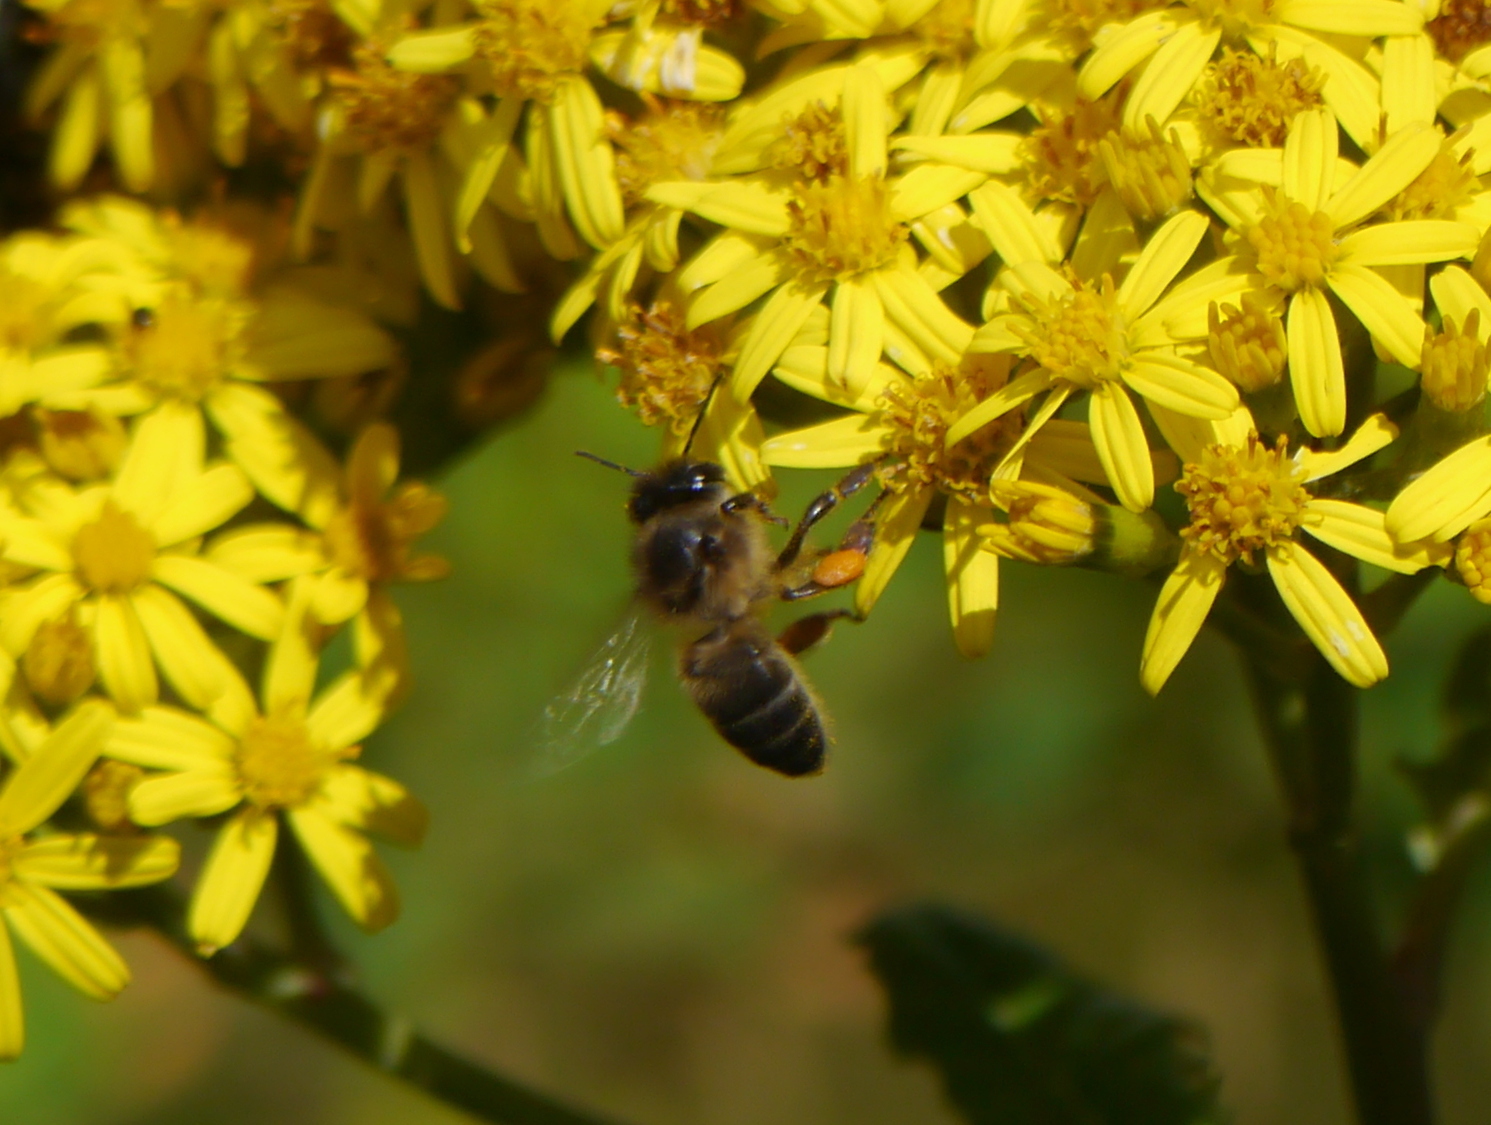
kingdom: Animalia
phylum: Arthropoda
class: Insecta
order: Hymenoptera
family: Apidae
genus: Apis
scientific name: Apis mellifera
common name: Honey bee
